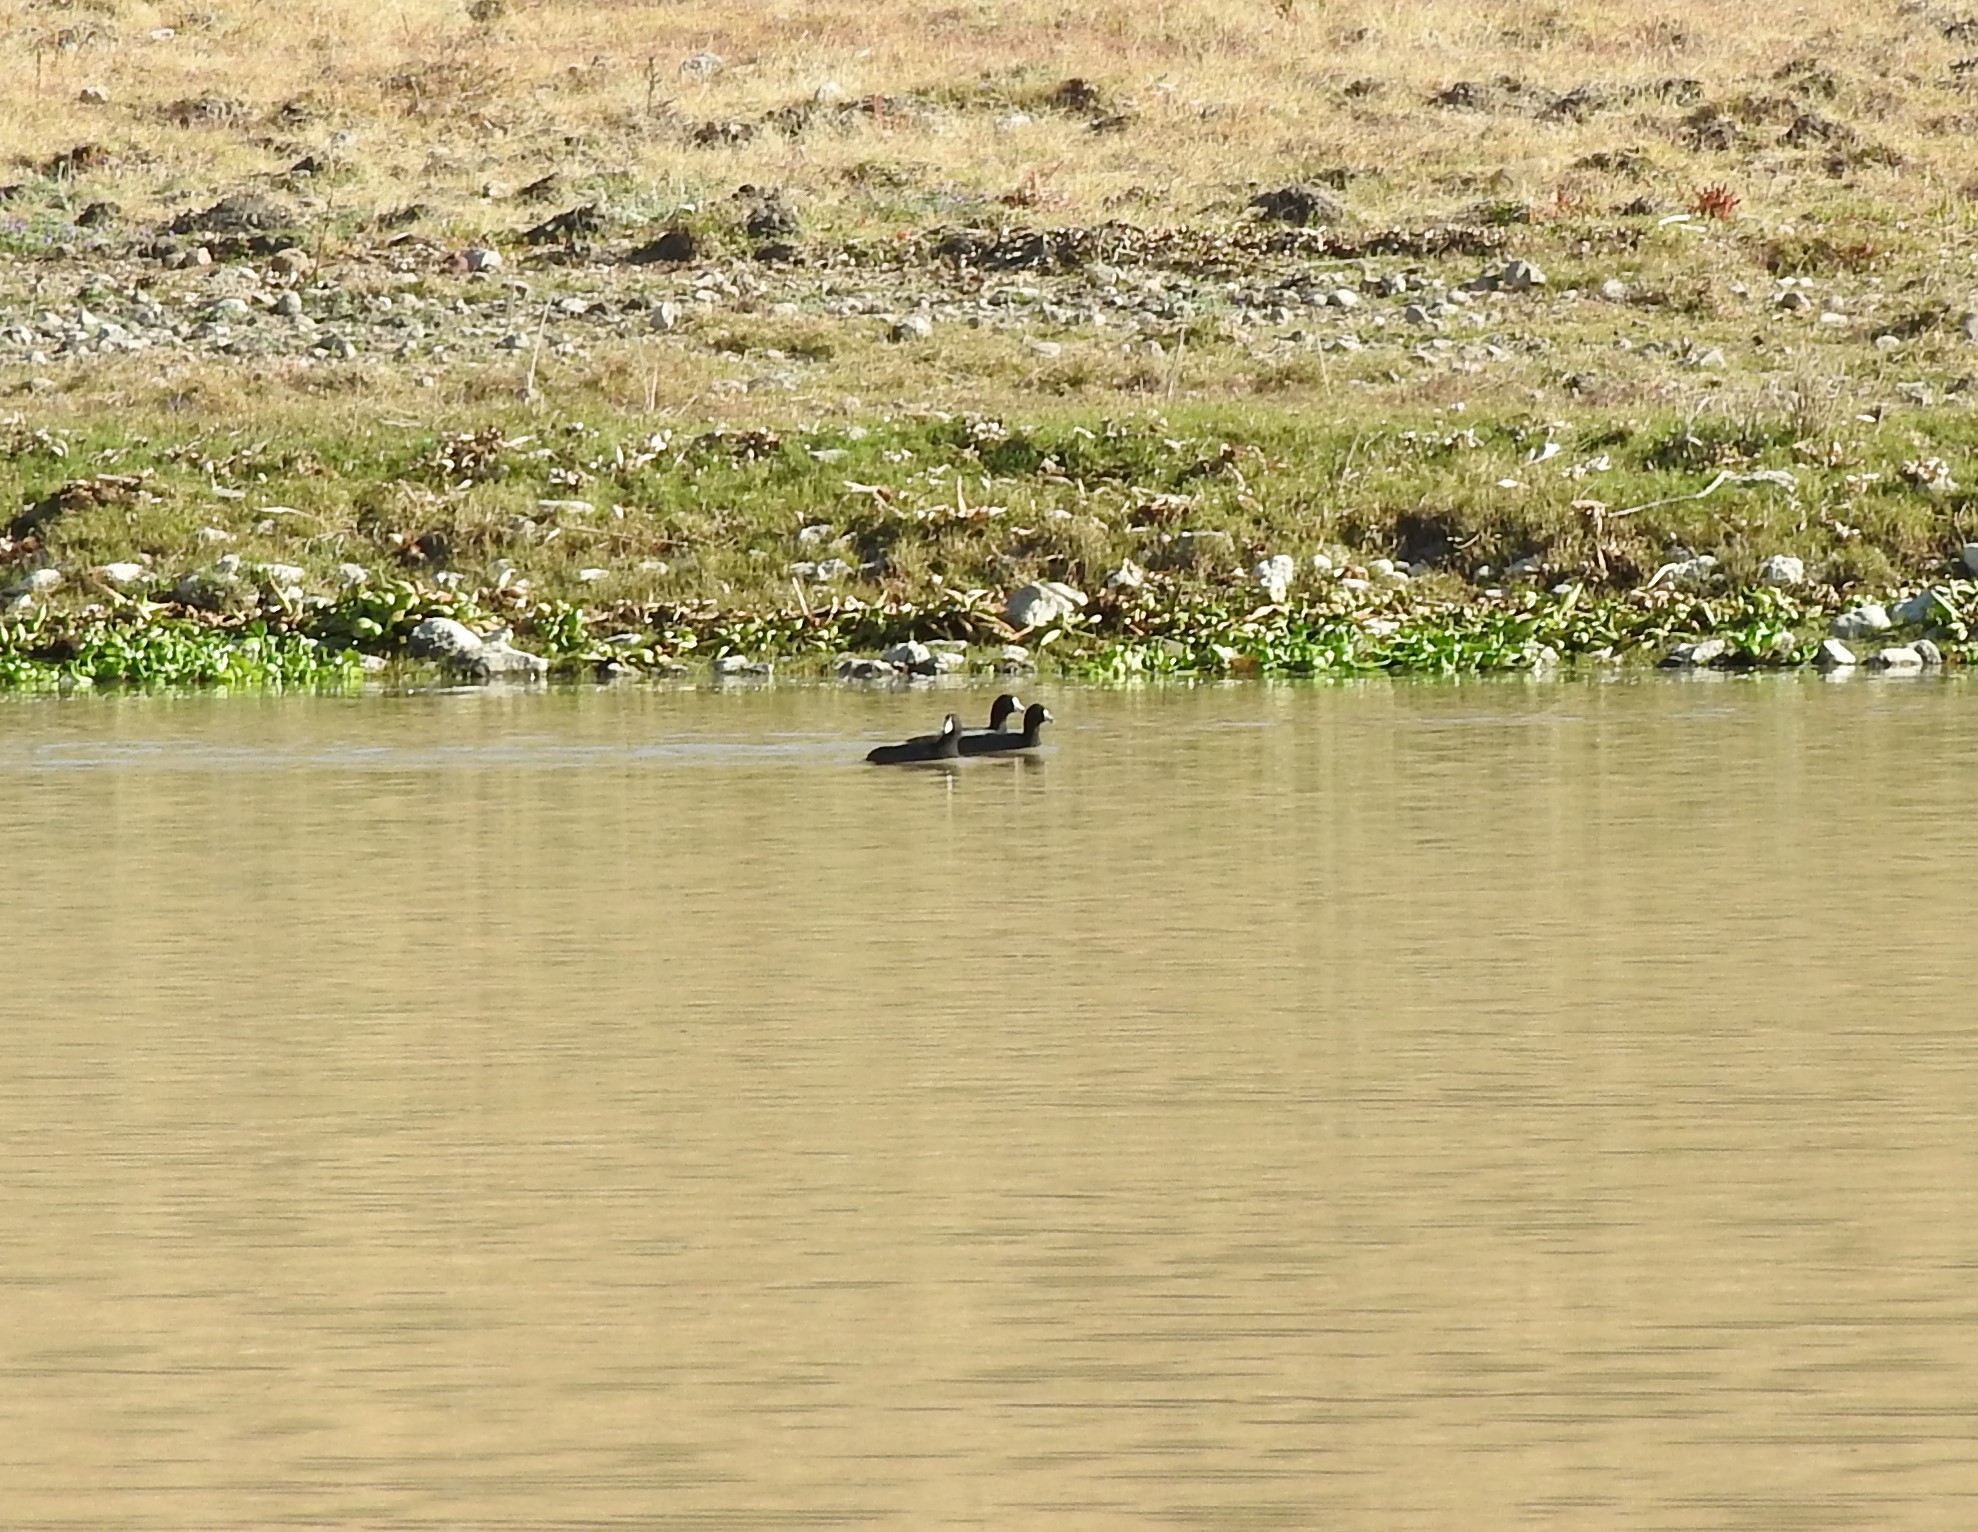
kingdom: Animalia
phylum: Chordata
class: Aves
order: Gruiformes
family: Rallidae
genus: Fulica
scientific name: Fulica americana
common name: American coot
